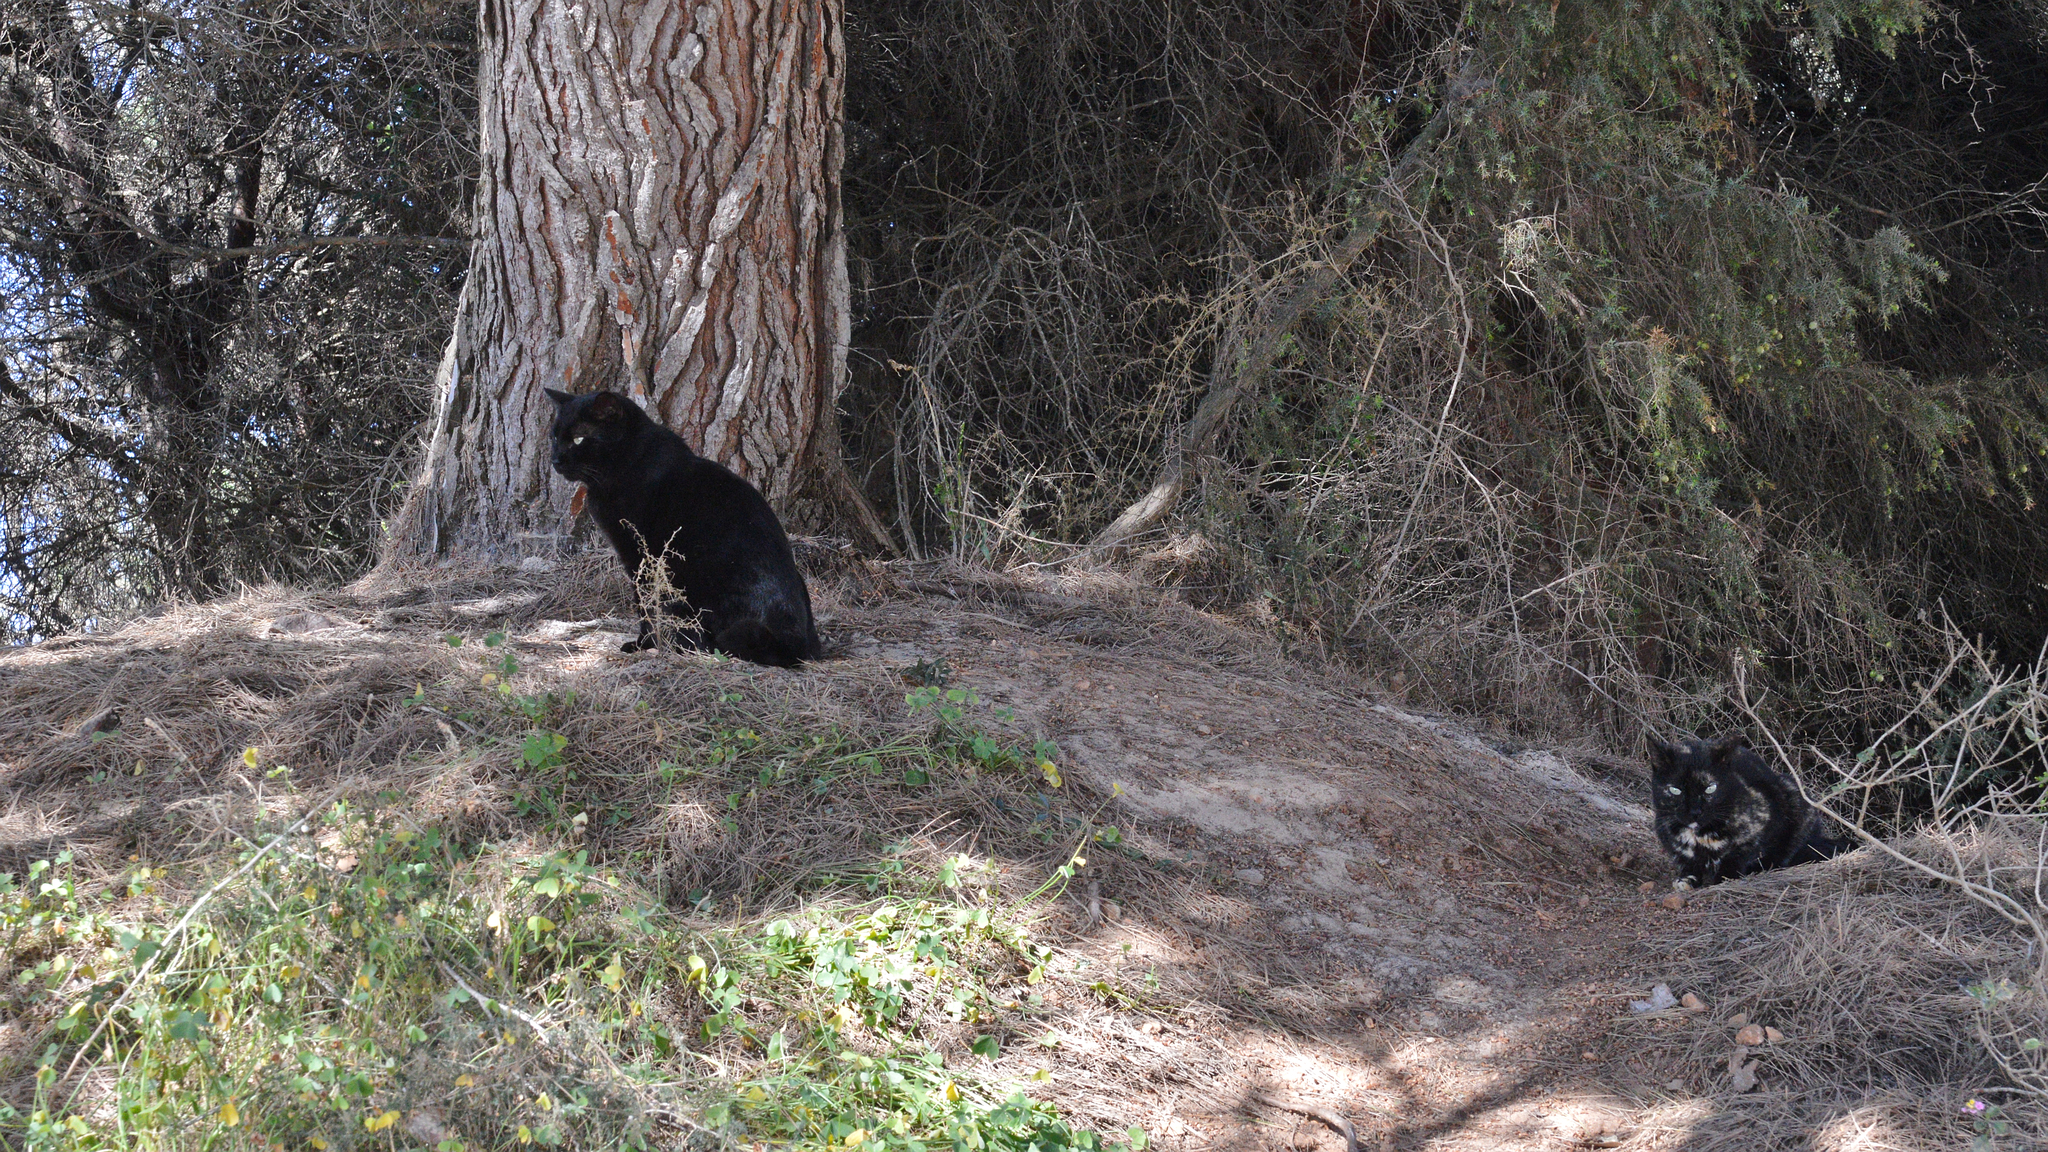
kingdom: Animalia
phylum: Chordata
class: Mammalia
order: Carnivora
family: Felidae
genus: Felis
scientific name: Felis catus
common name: Domestic cat
